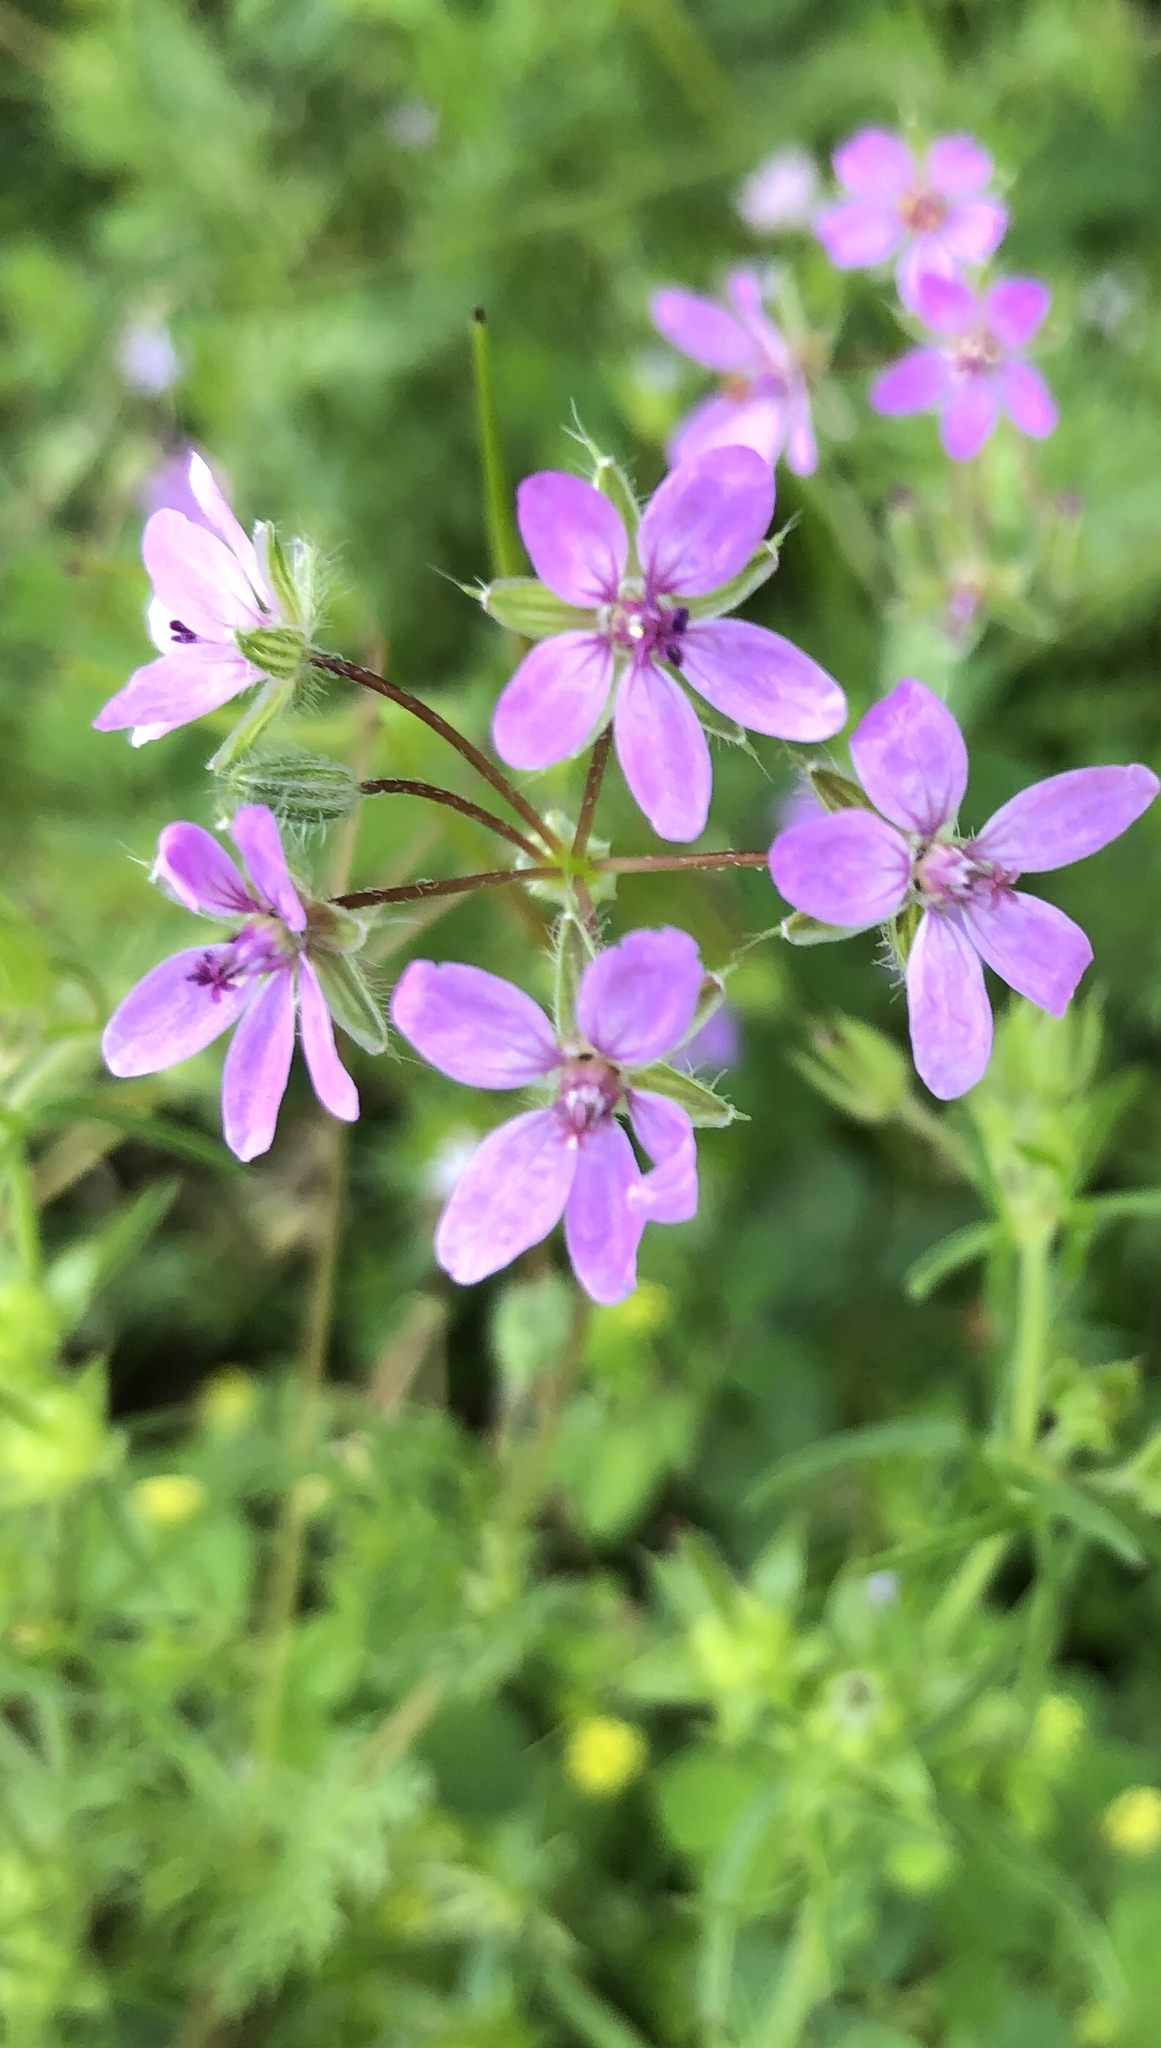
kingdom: Plantae
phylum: Tracheophyta
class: Magnoliopsida
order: Geraniales
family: Geraniaceae
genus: Erodium
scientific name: Erodium cicutarium
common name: Common stork's-bill
